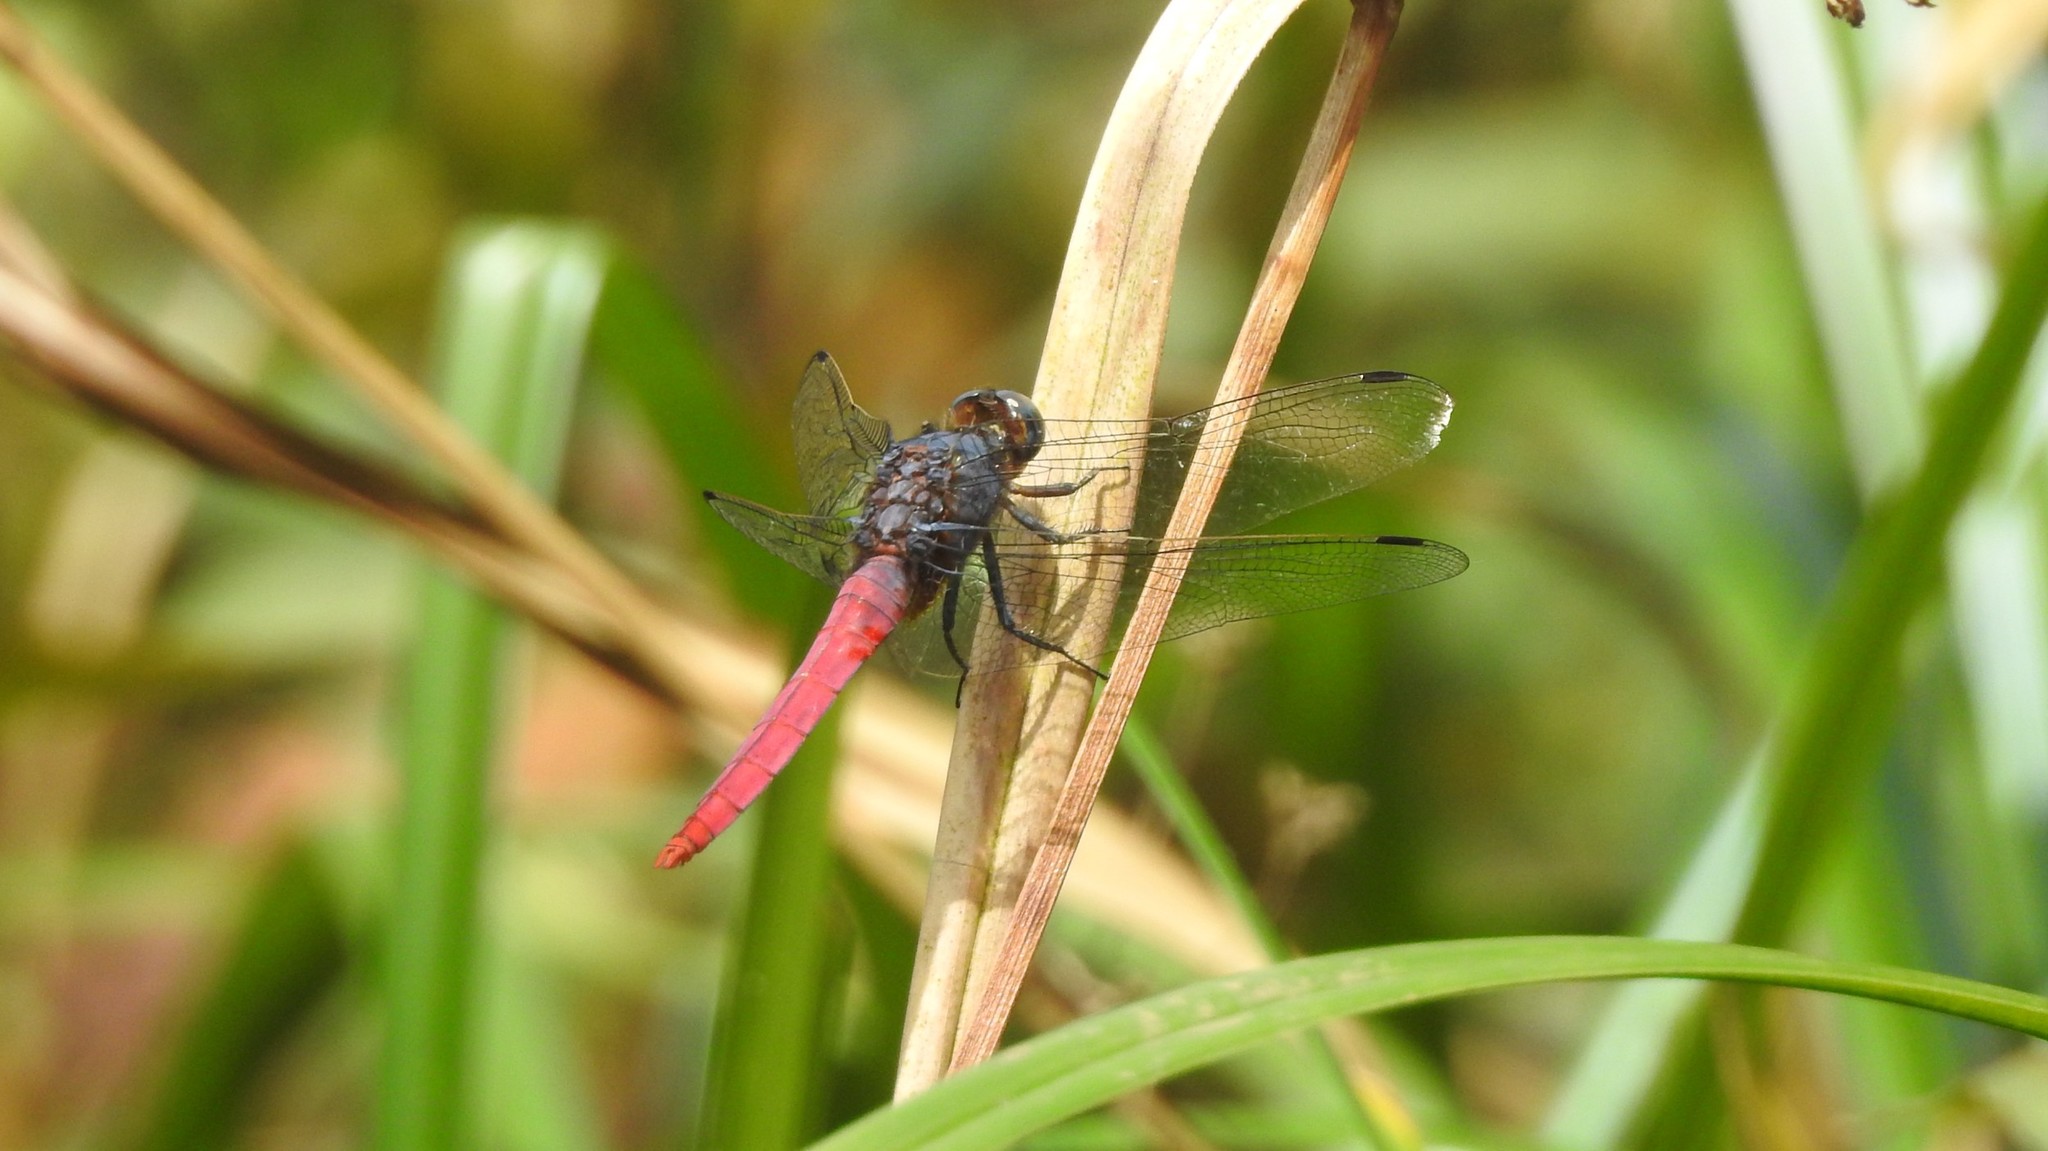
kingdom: Animalia
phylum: Arthropoda
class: Insecta
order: Odonata
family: Libellulidae
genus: Orthetrum
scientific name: Orthetrum pruinosum
